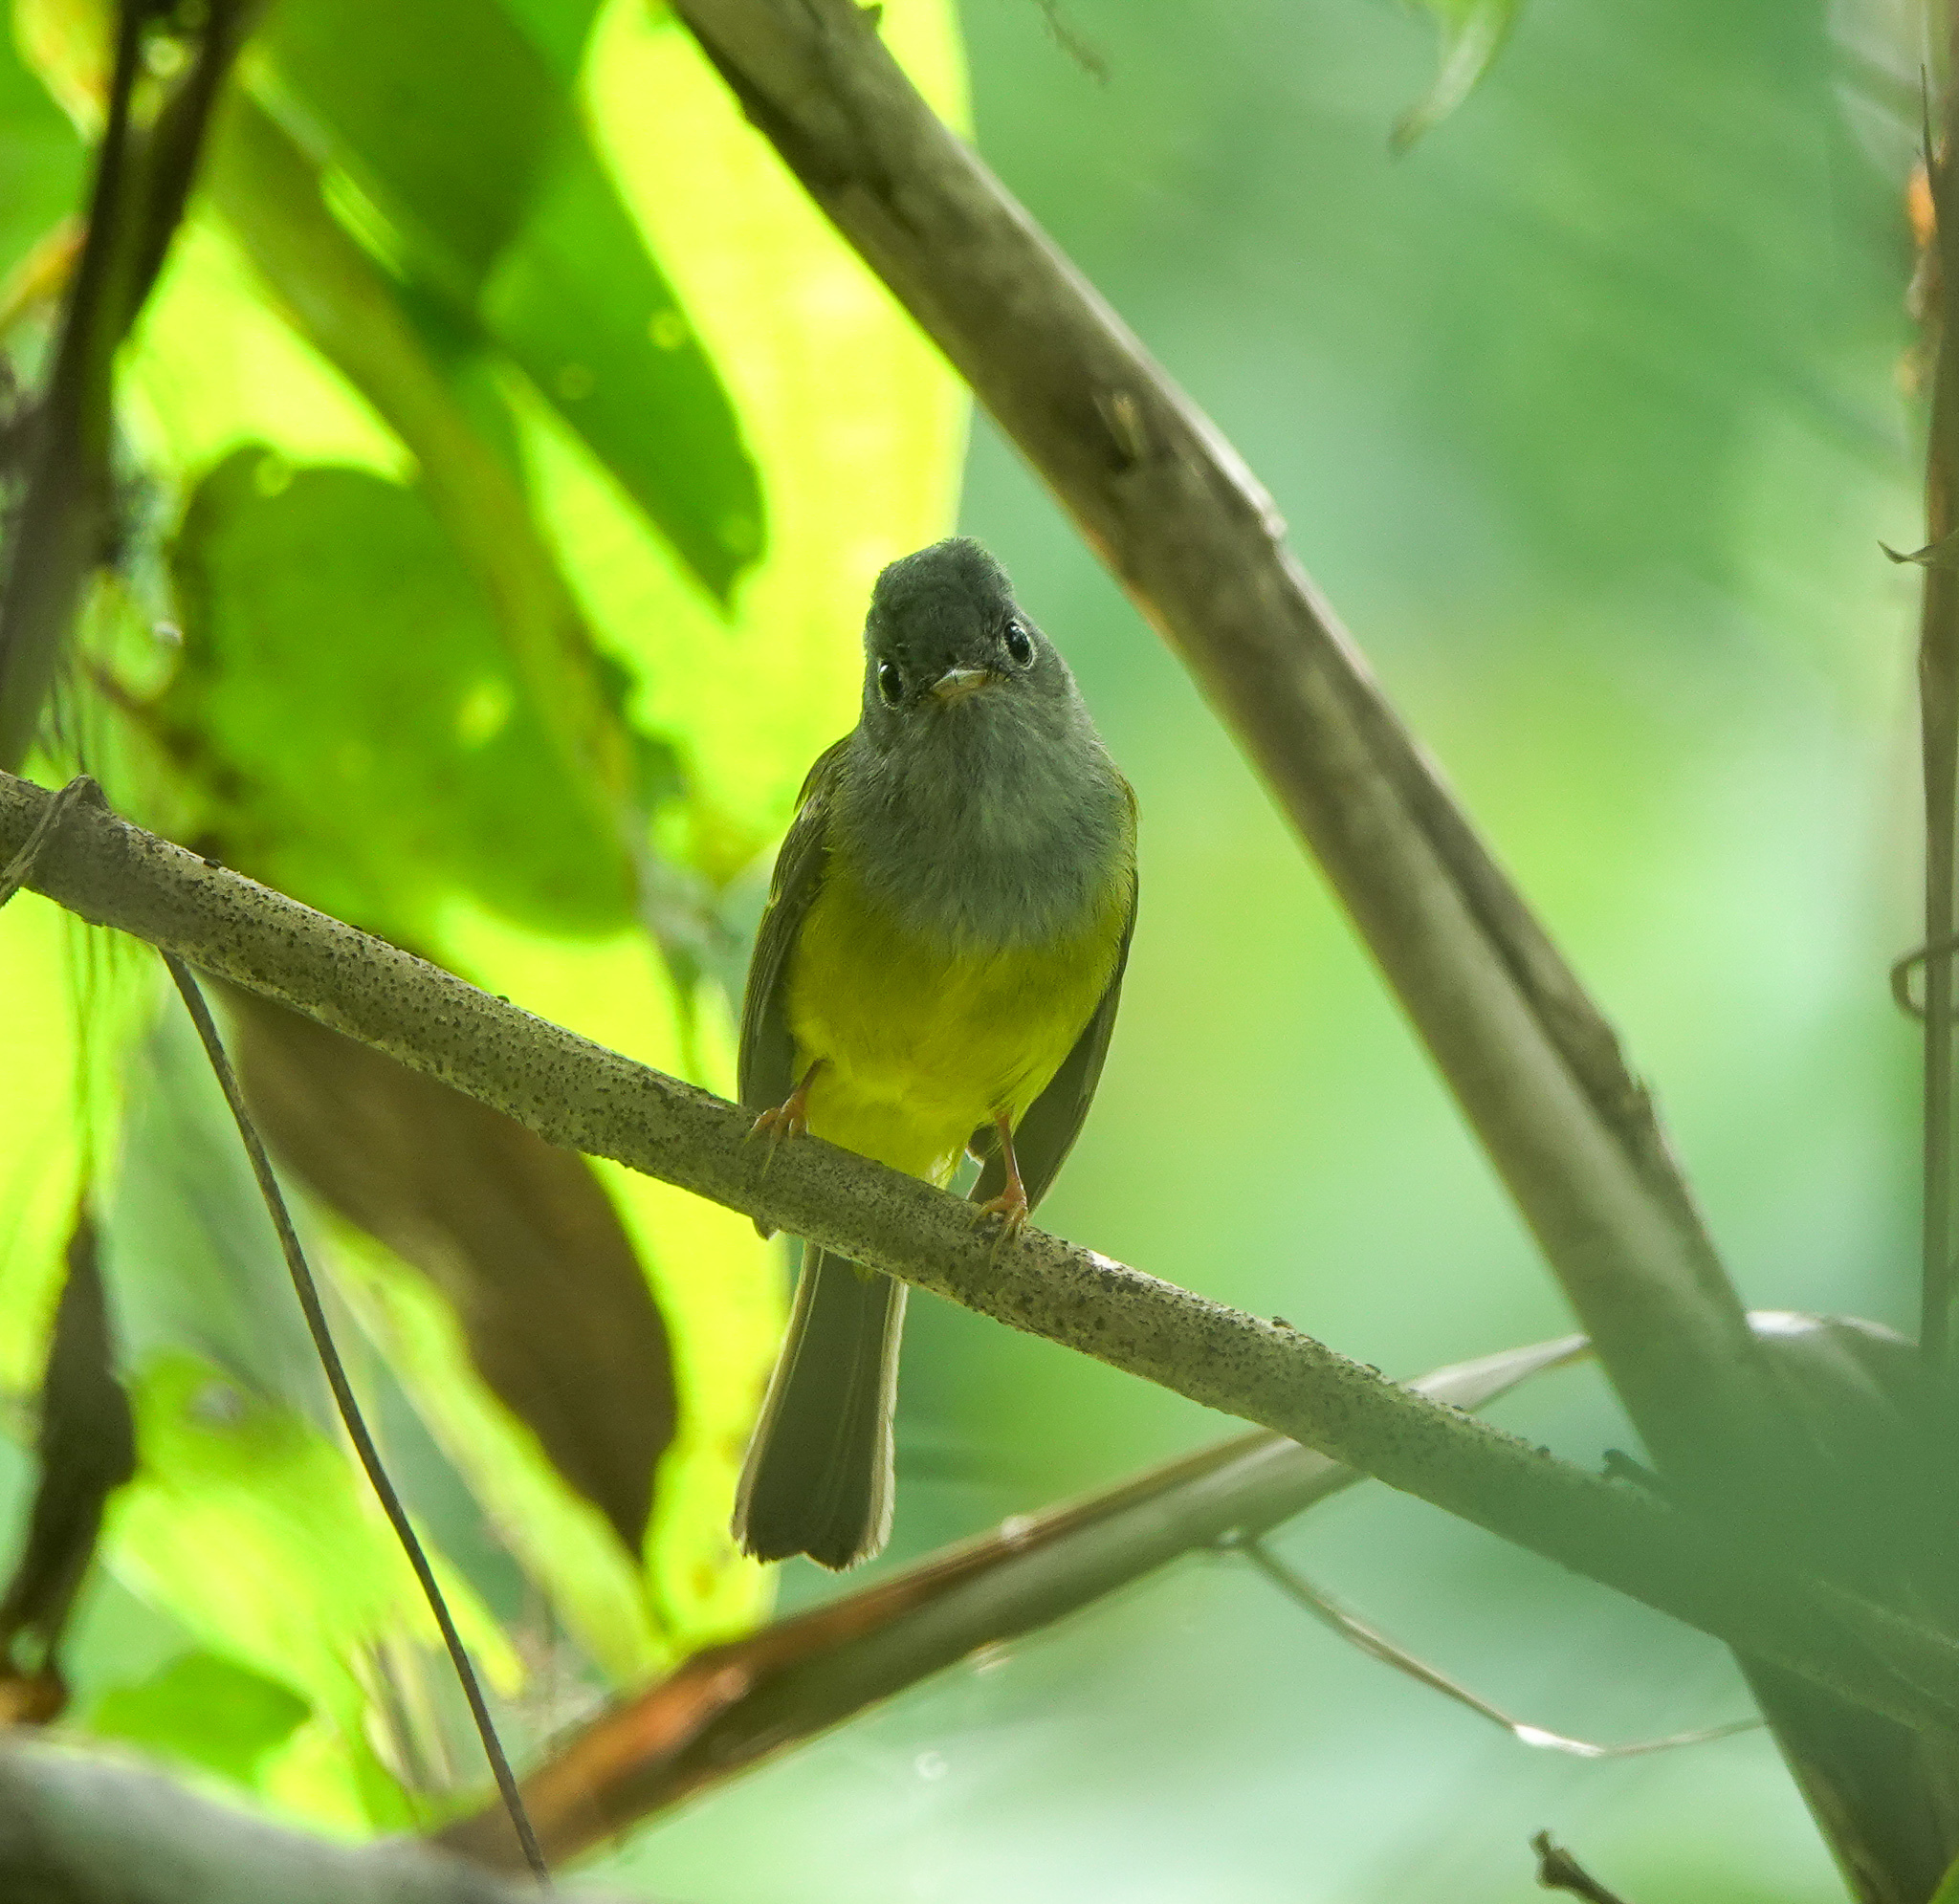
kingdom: Animalia
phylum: Chordata
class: Aves
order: Passeriformes
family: Stenostiridae
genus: Culicicapa
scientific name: Culicicapa ceylonensis
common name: Grey-headed canary-flycatcher
